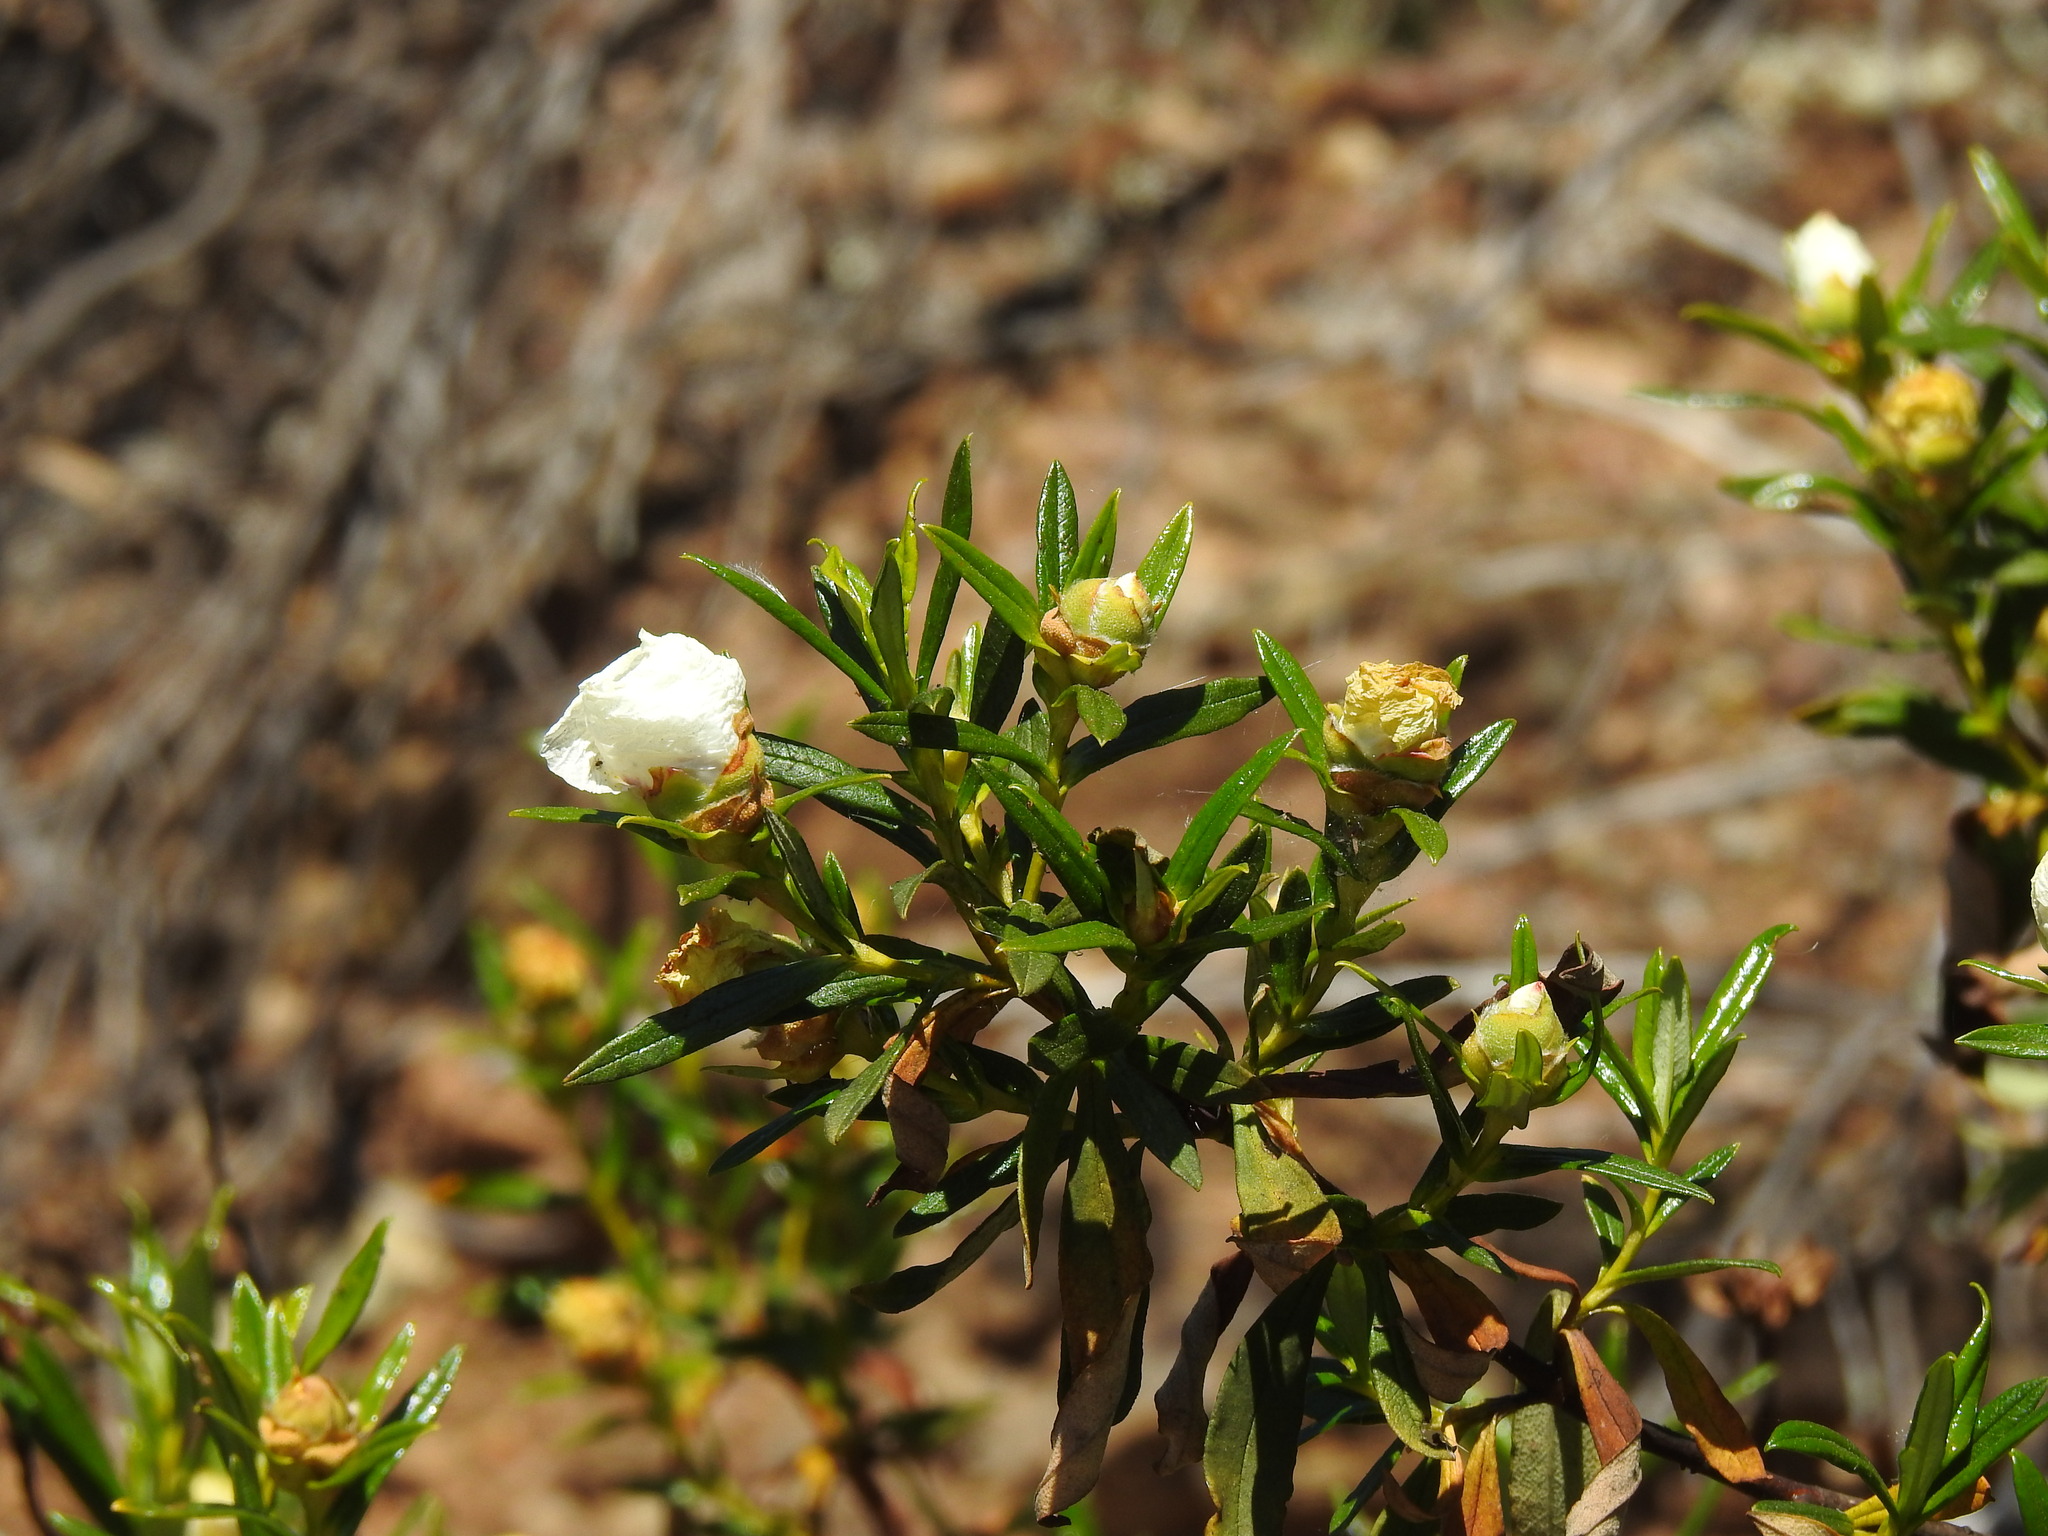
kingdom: Plantae
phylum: Tracheophyta
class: Magnoliopsida
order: Malvales
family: Cistaceae
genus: Cistus
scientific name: Cistus ladanifer
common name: Common gum cistus
